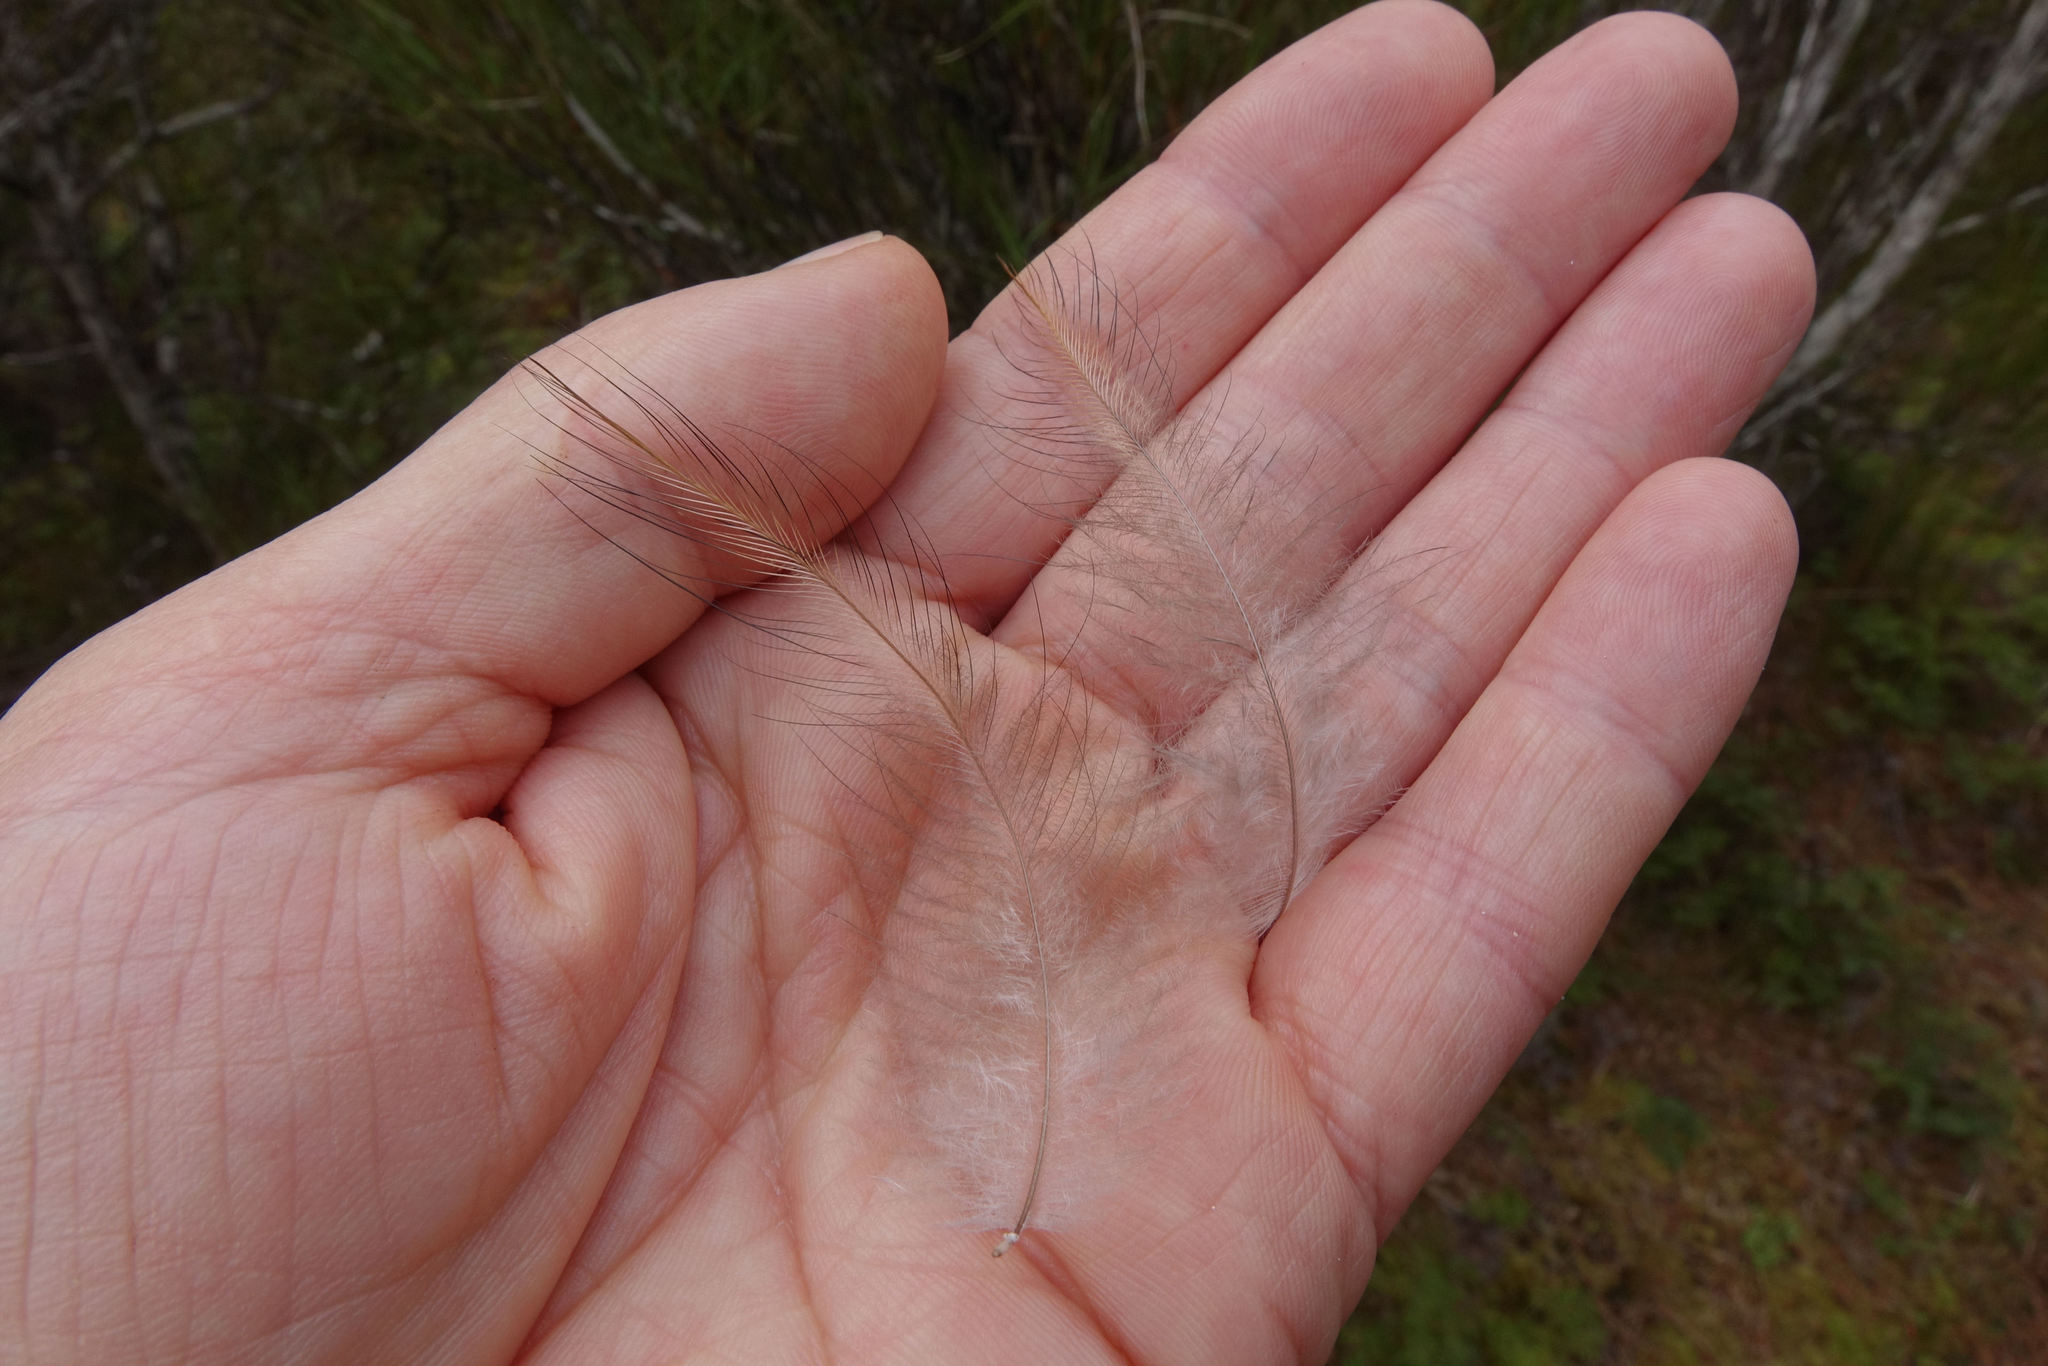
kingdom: Animalia
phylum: Chordata
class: Aves
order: Apterygiformes
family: Apterygidae
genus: Apteryx
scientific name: Apteryx australis
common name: Southern brown kiwi
